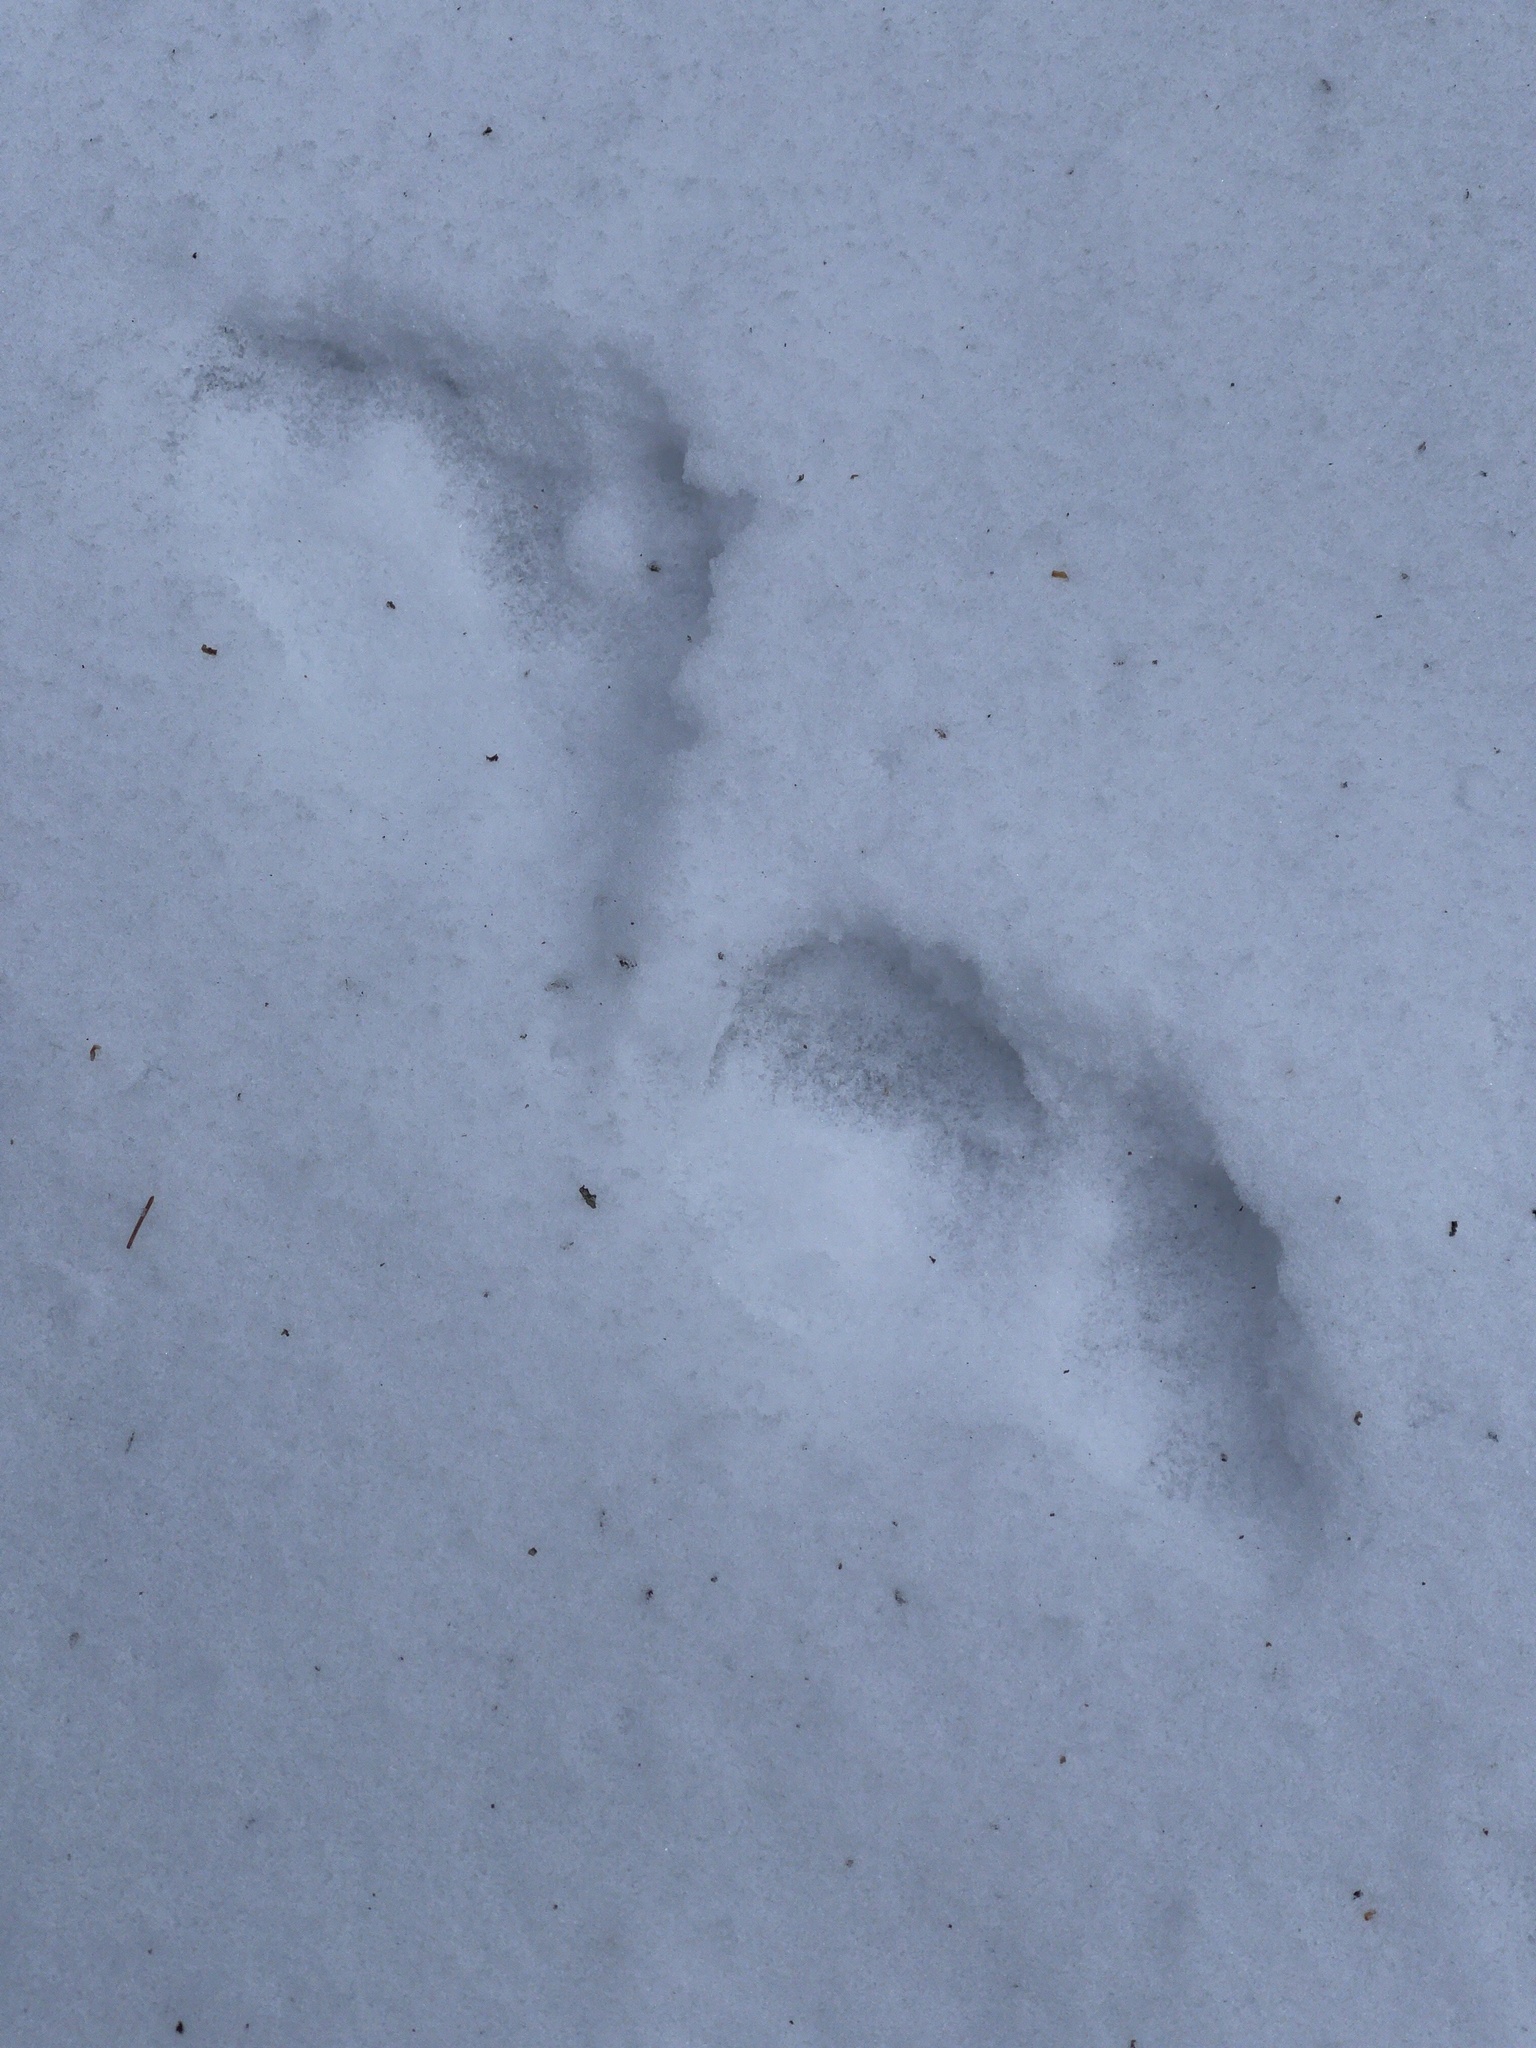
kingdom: Animalia
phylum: Chordata
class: Mammalia
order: Carnivora
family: Mustelidae
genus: Lontra
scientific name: Lontra canadensis
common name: North american river otter
